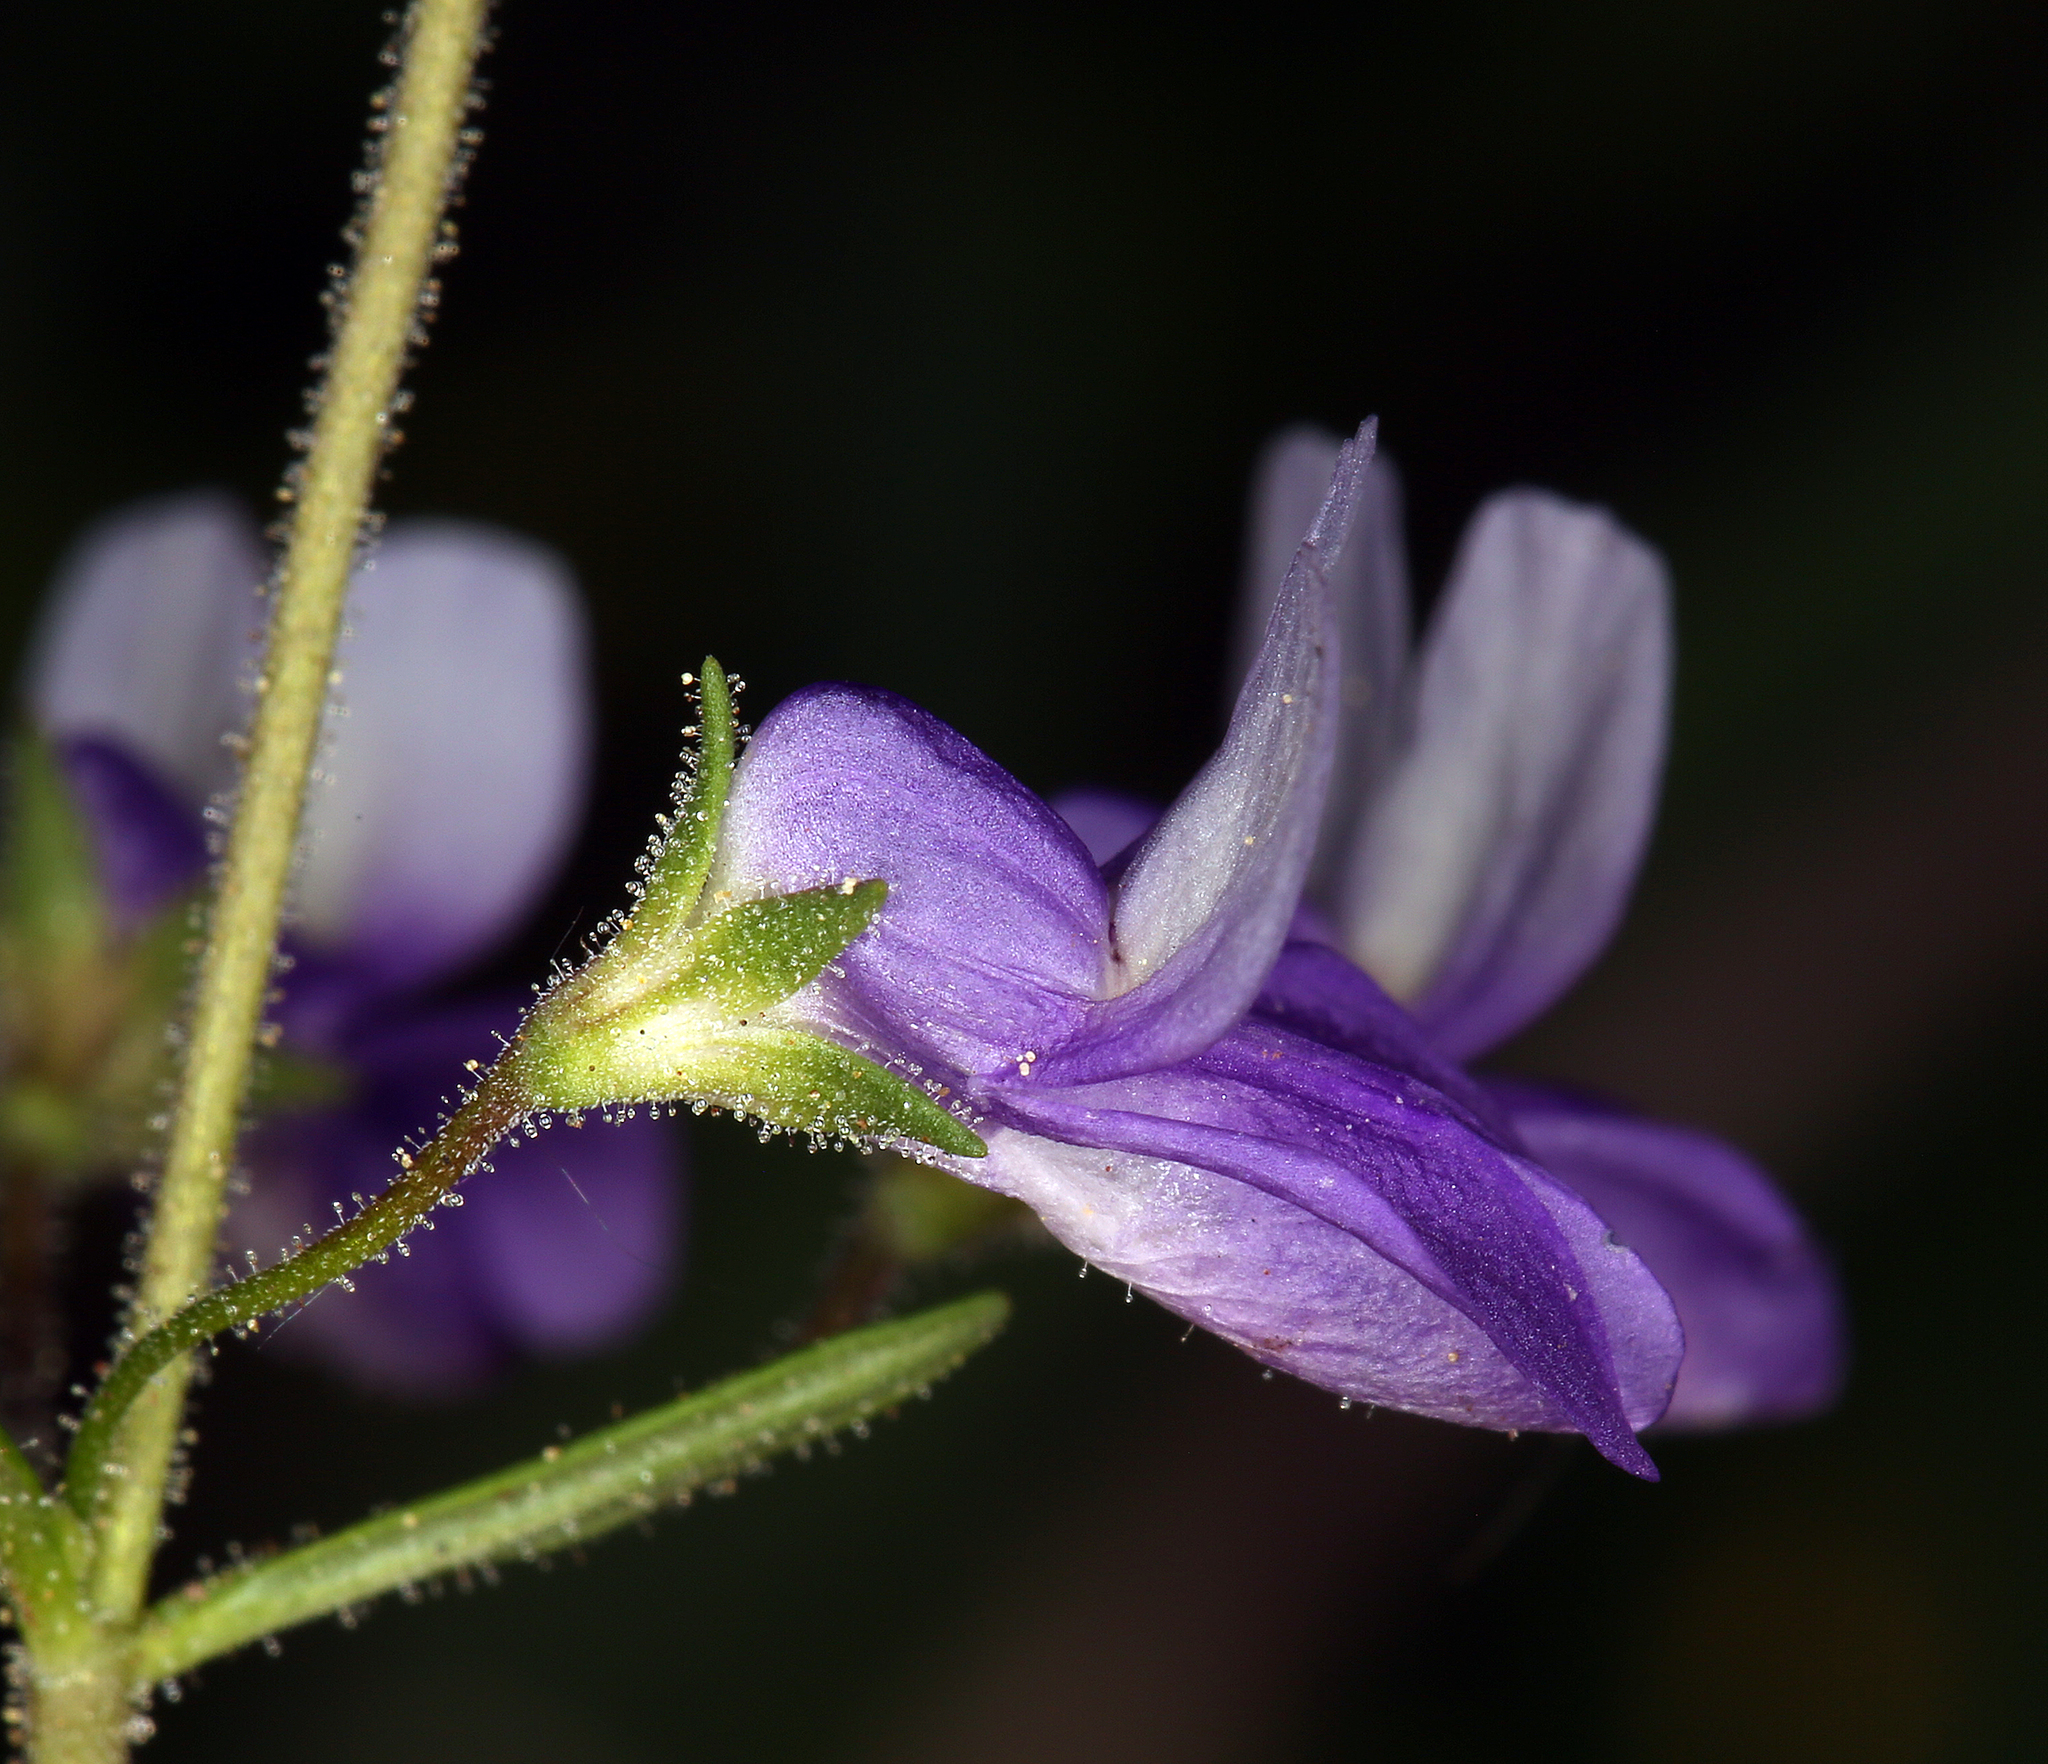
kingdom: Plantae
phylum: Tracheophyta
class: Magnoliopsida
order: Lamiales
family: Plantaginaceae
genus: Collinsia
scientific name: Collinsia linearis
